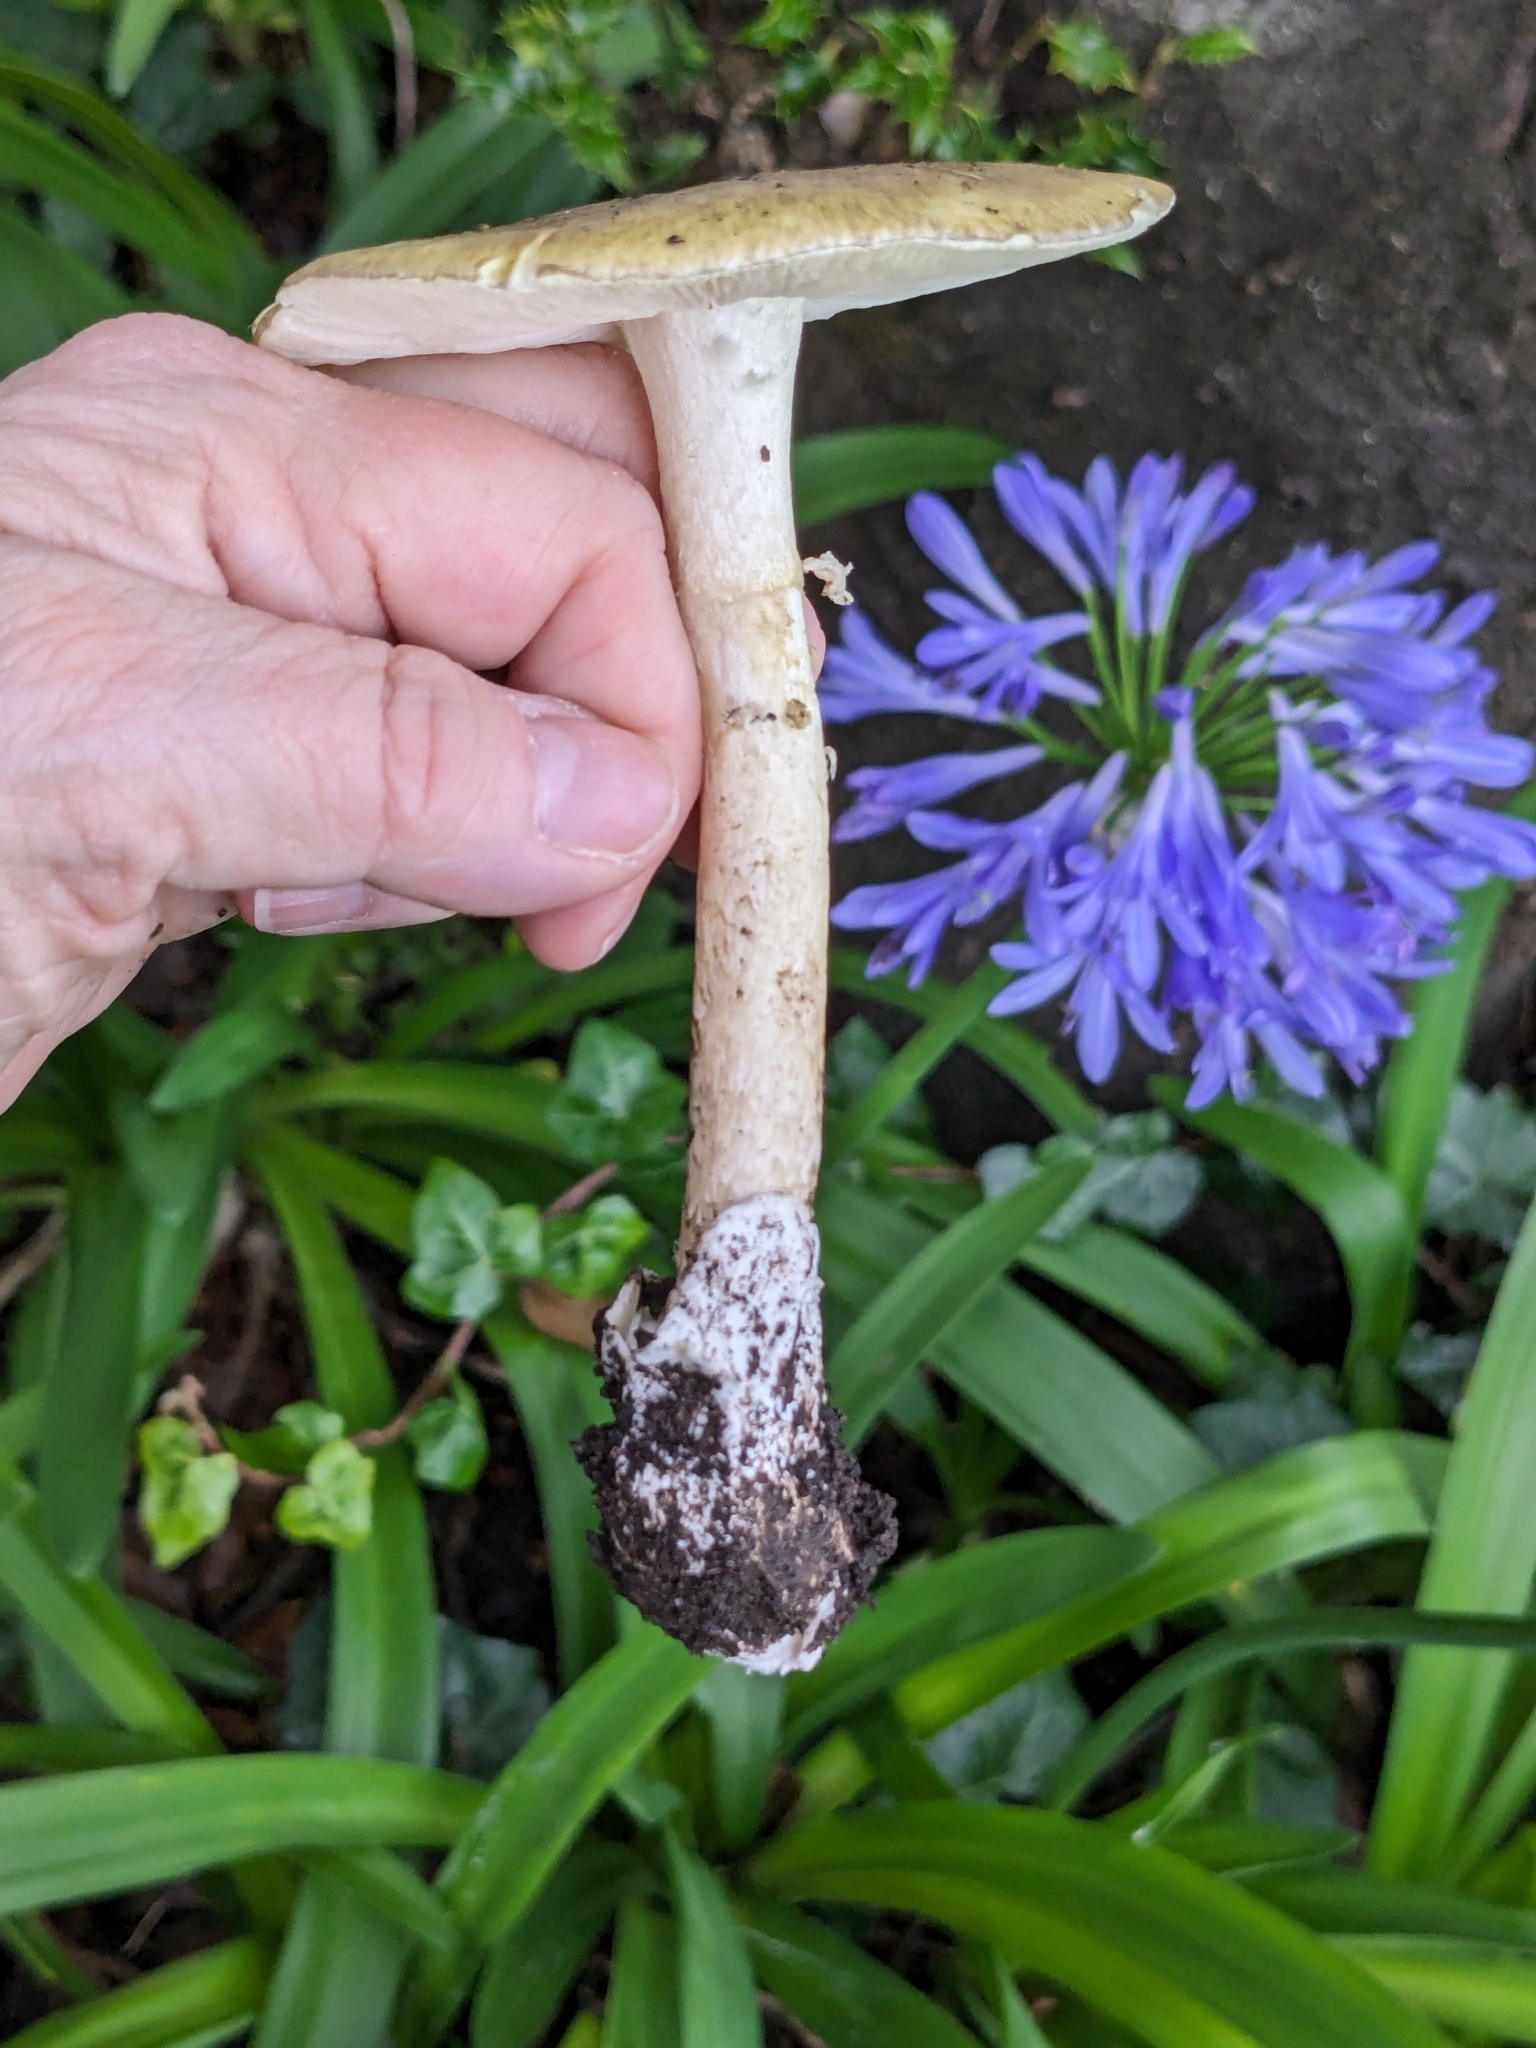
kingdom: Fungi
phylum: Basidiomycota
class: Agaricomycetes
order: Agaricales
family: Amanitaceae
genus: Amanita
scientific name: Amanita phalloides
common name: Death cap
